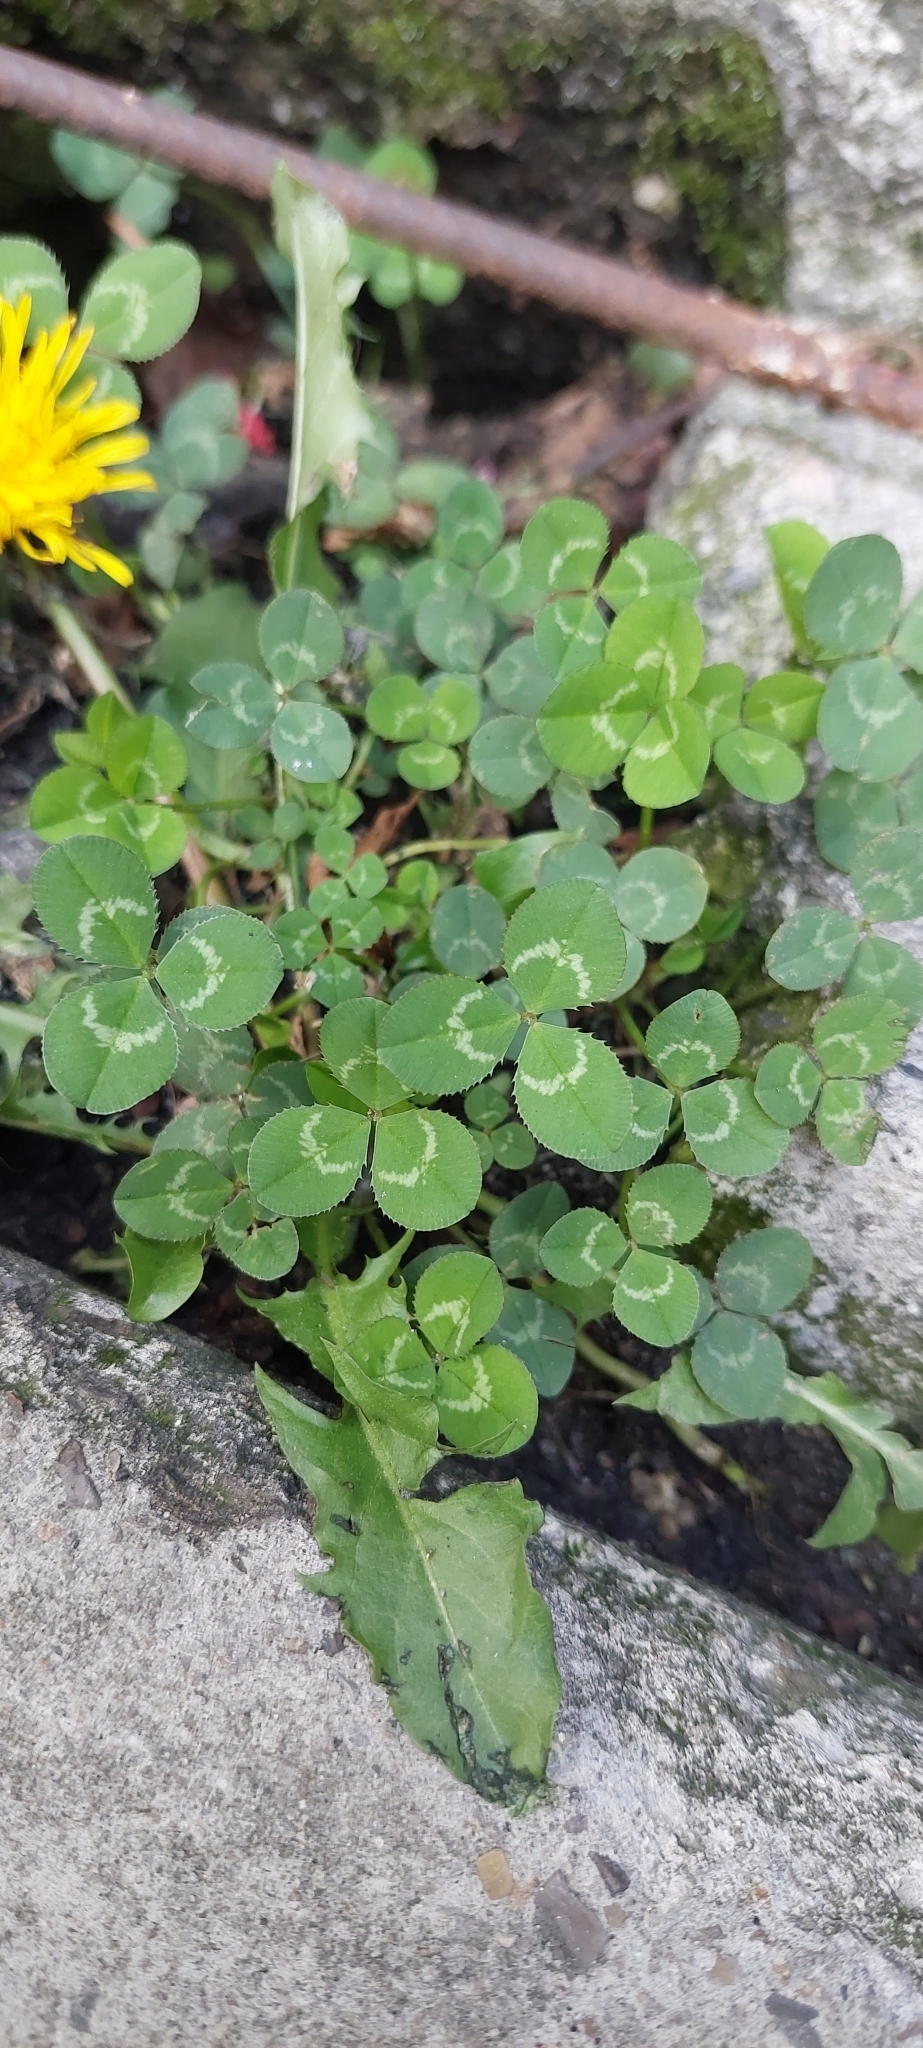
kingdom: Plantae
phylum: Tracheophyta
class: Magnoliopsida
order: Fabales
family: Fabaceae
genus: Trifolium
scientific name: Trifolium repens
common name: White clover
